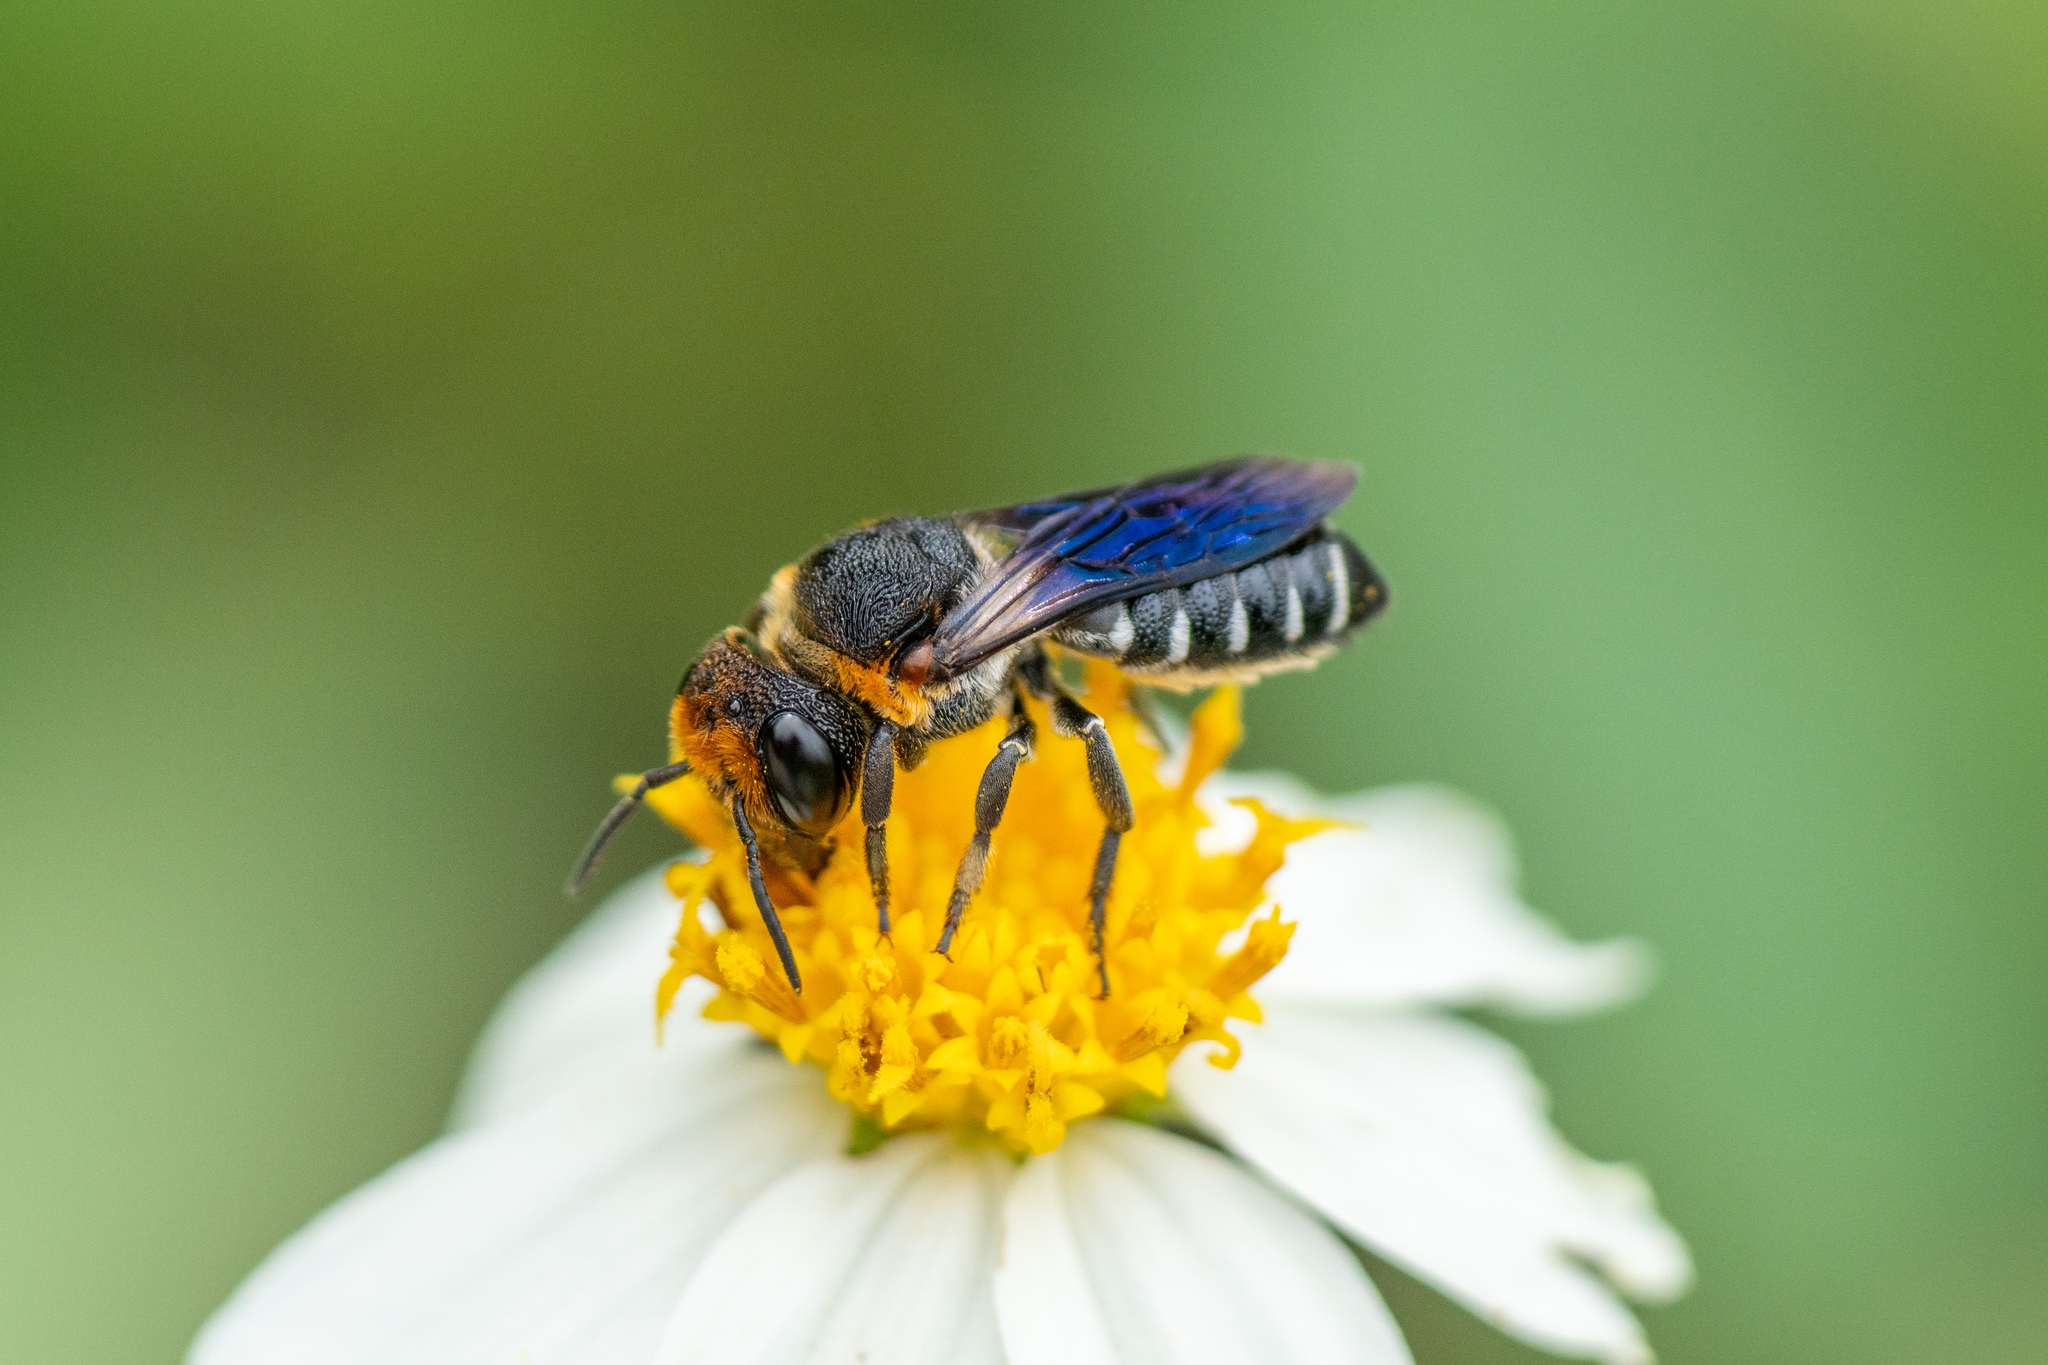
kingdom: Animalia
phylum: Arthropoda
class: Insecta
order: Hymenoptera
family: Megachilidae
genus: Megachile
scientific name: Megachile faceta
